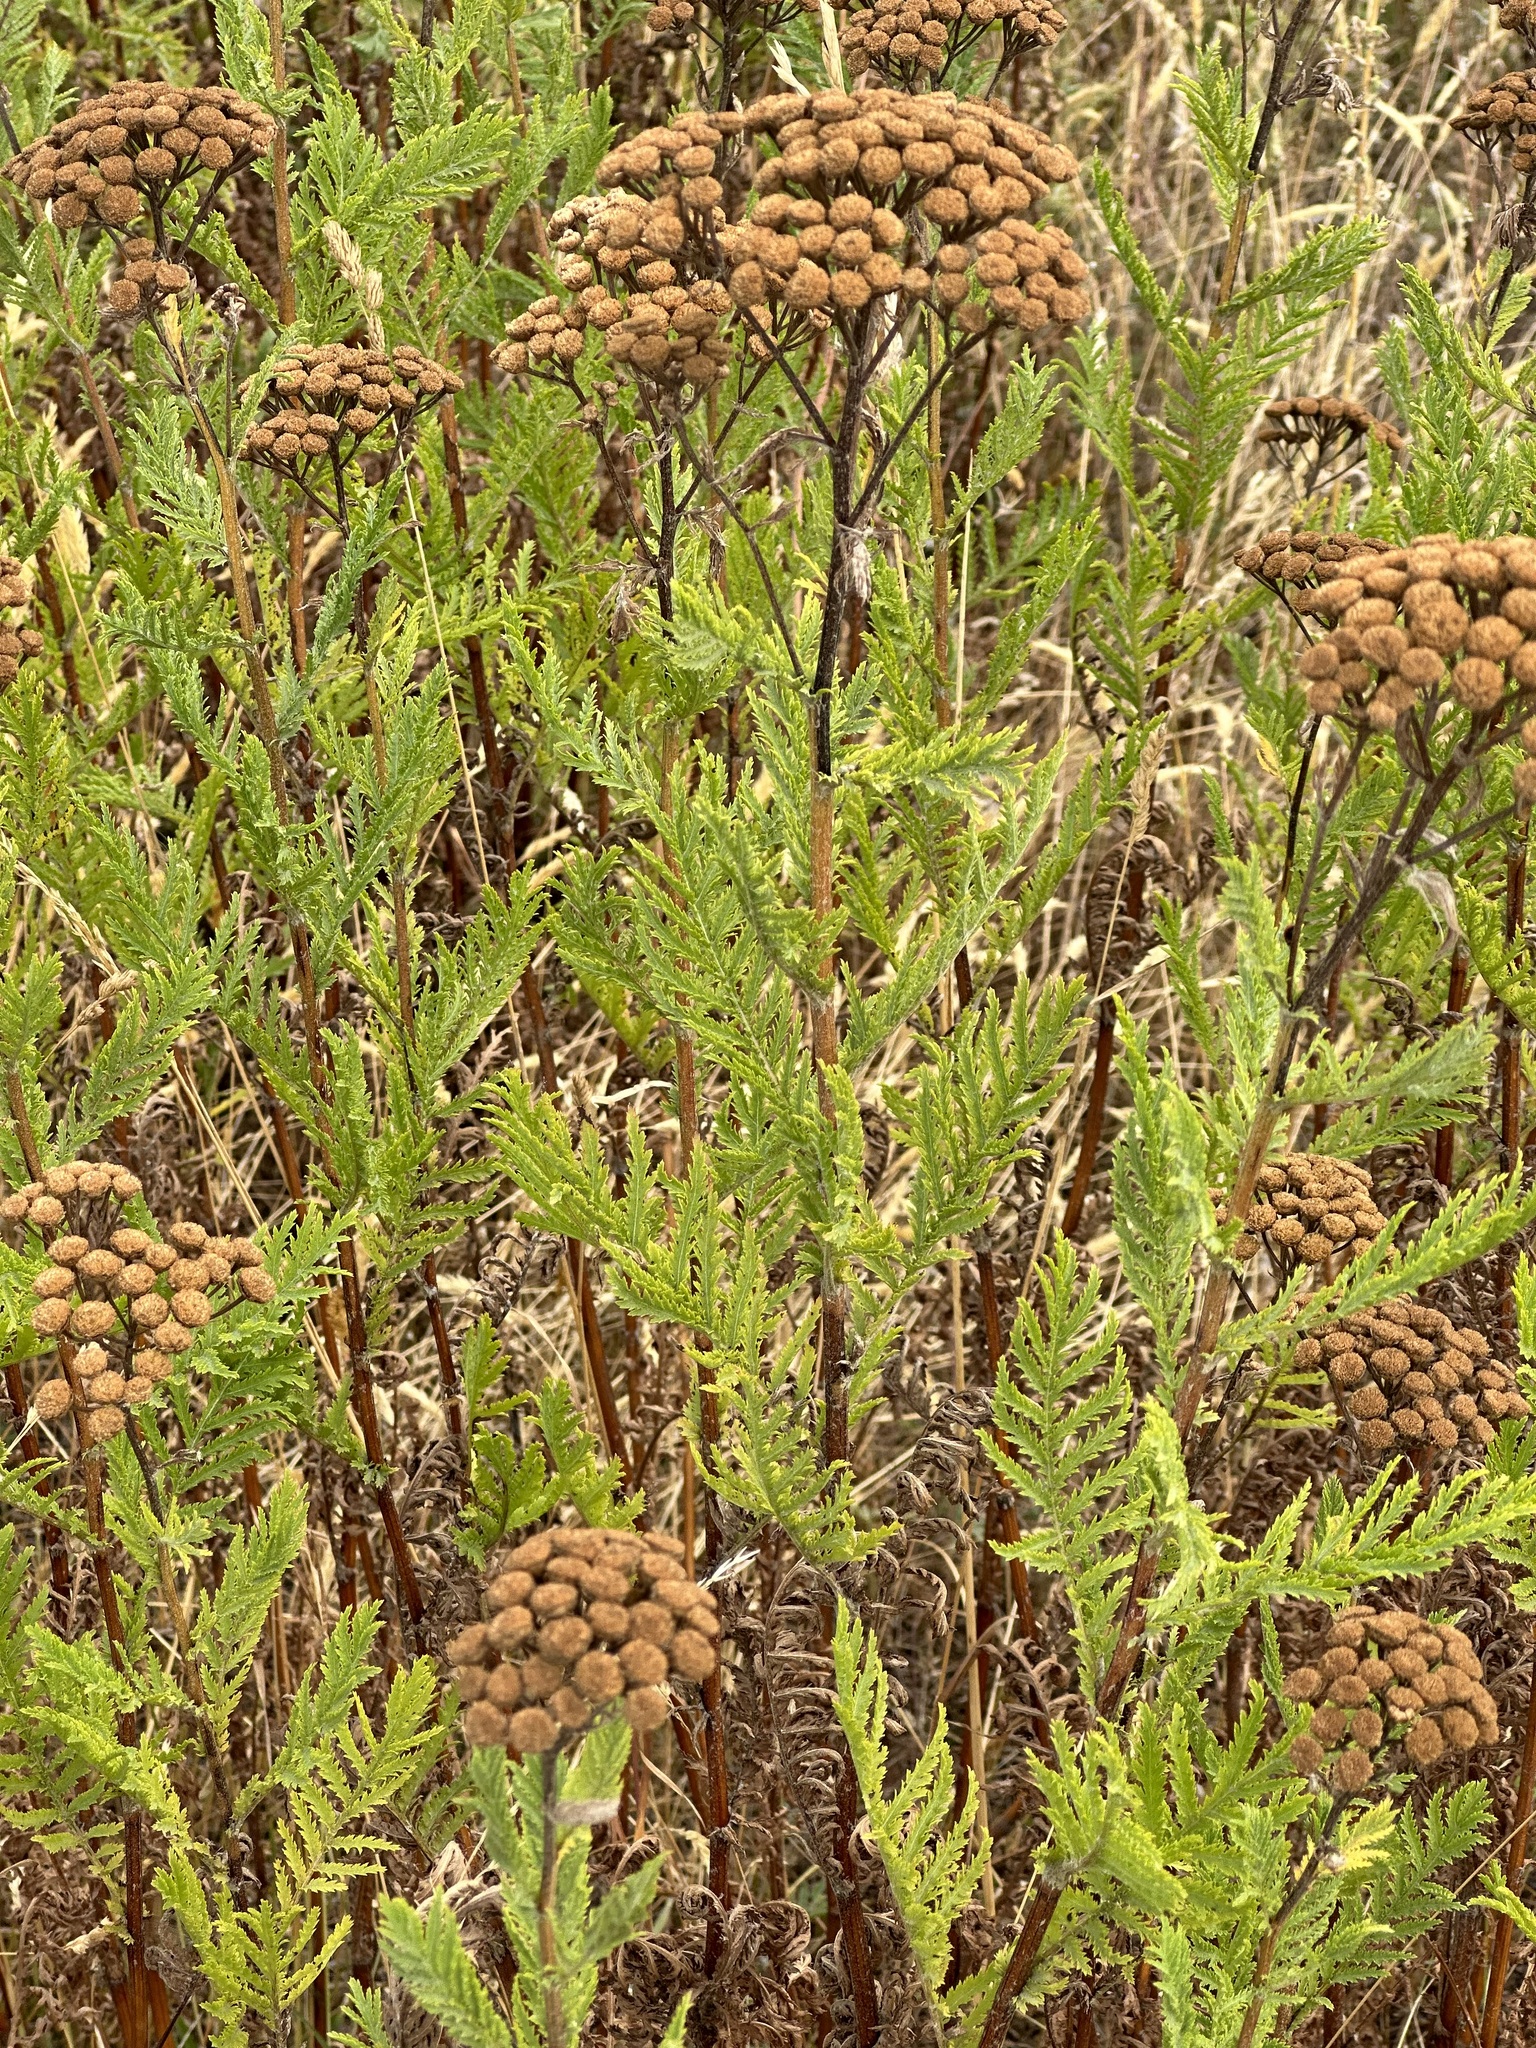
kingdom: Plantae
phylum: Tracheophyta
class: Magnoliopsida
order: Asterales
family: Asteraceae
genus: Tanacetum
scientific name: Tanacetum vulgare
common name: Common tansy
